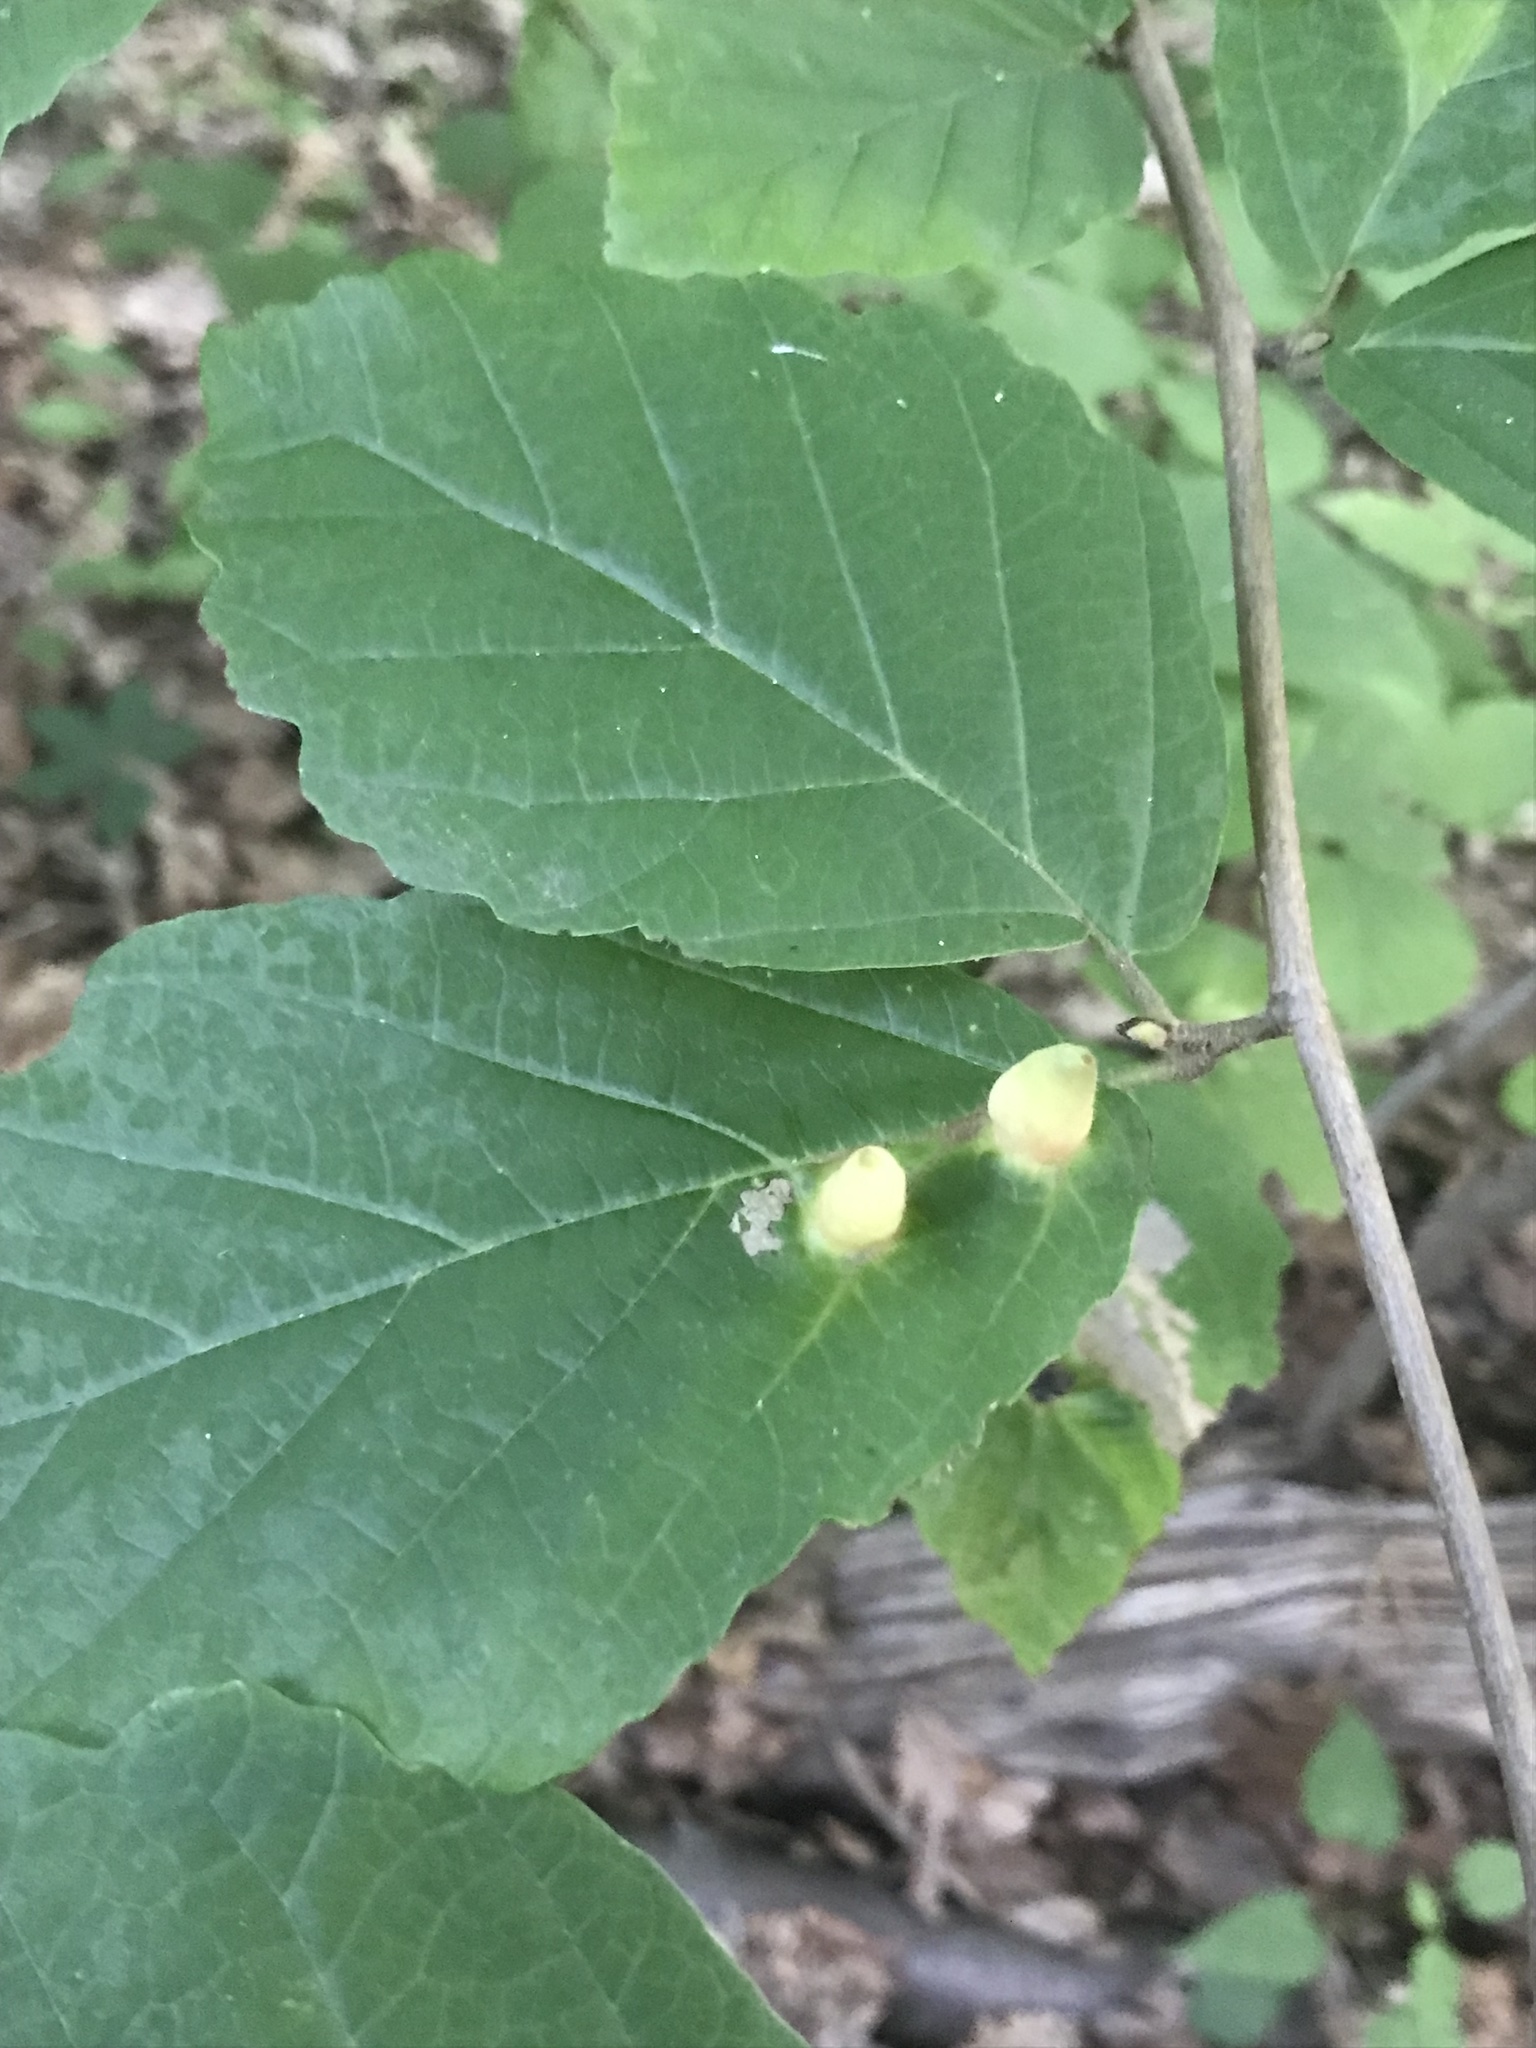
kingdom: Animalia
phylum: Arthropoda
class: Insecta
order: Hemiptera
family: Aphididae
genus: Hormaphis
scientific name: Hormaphis hamamelidis
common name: Witch-hazel cone gall aphid
